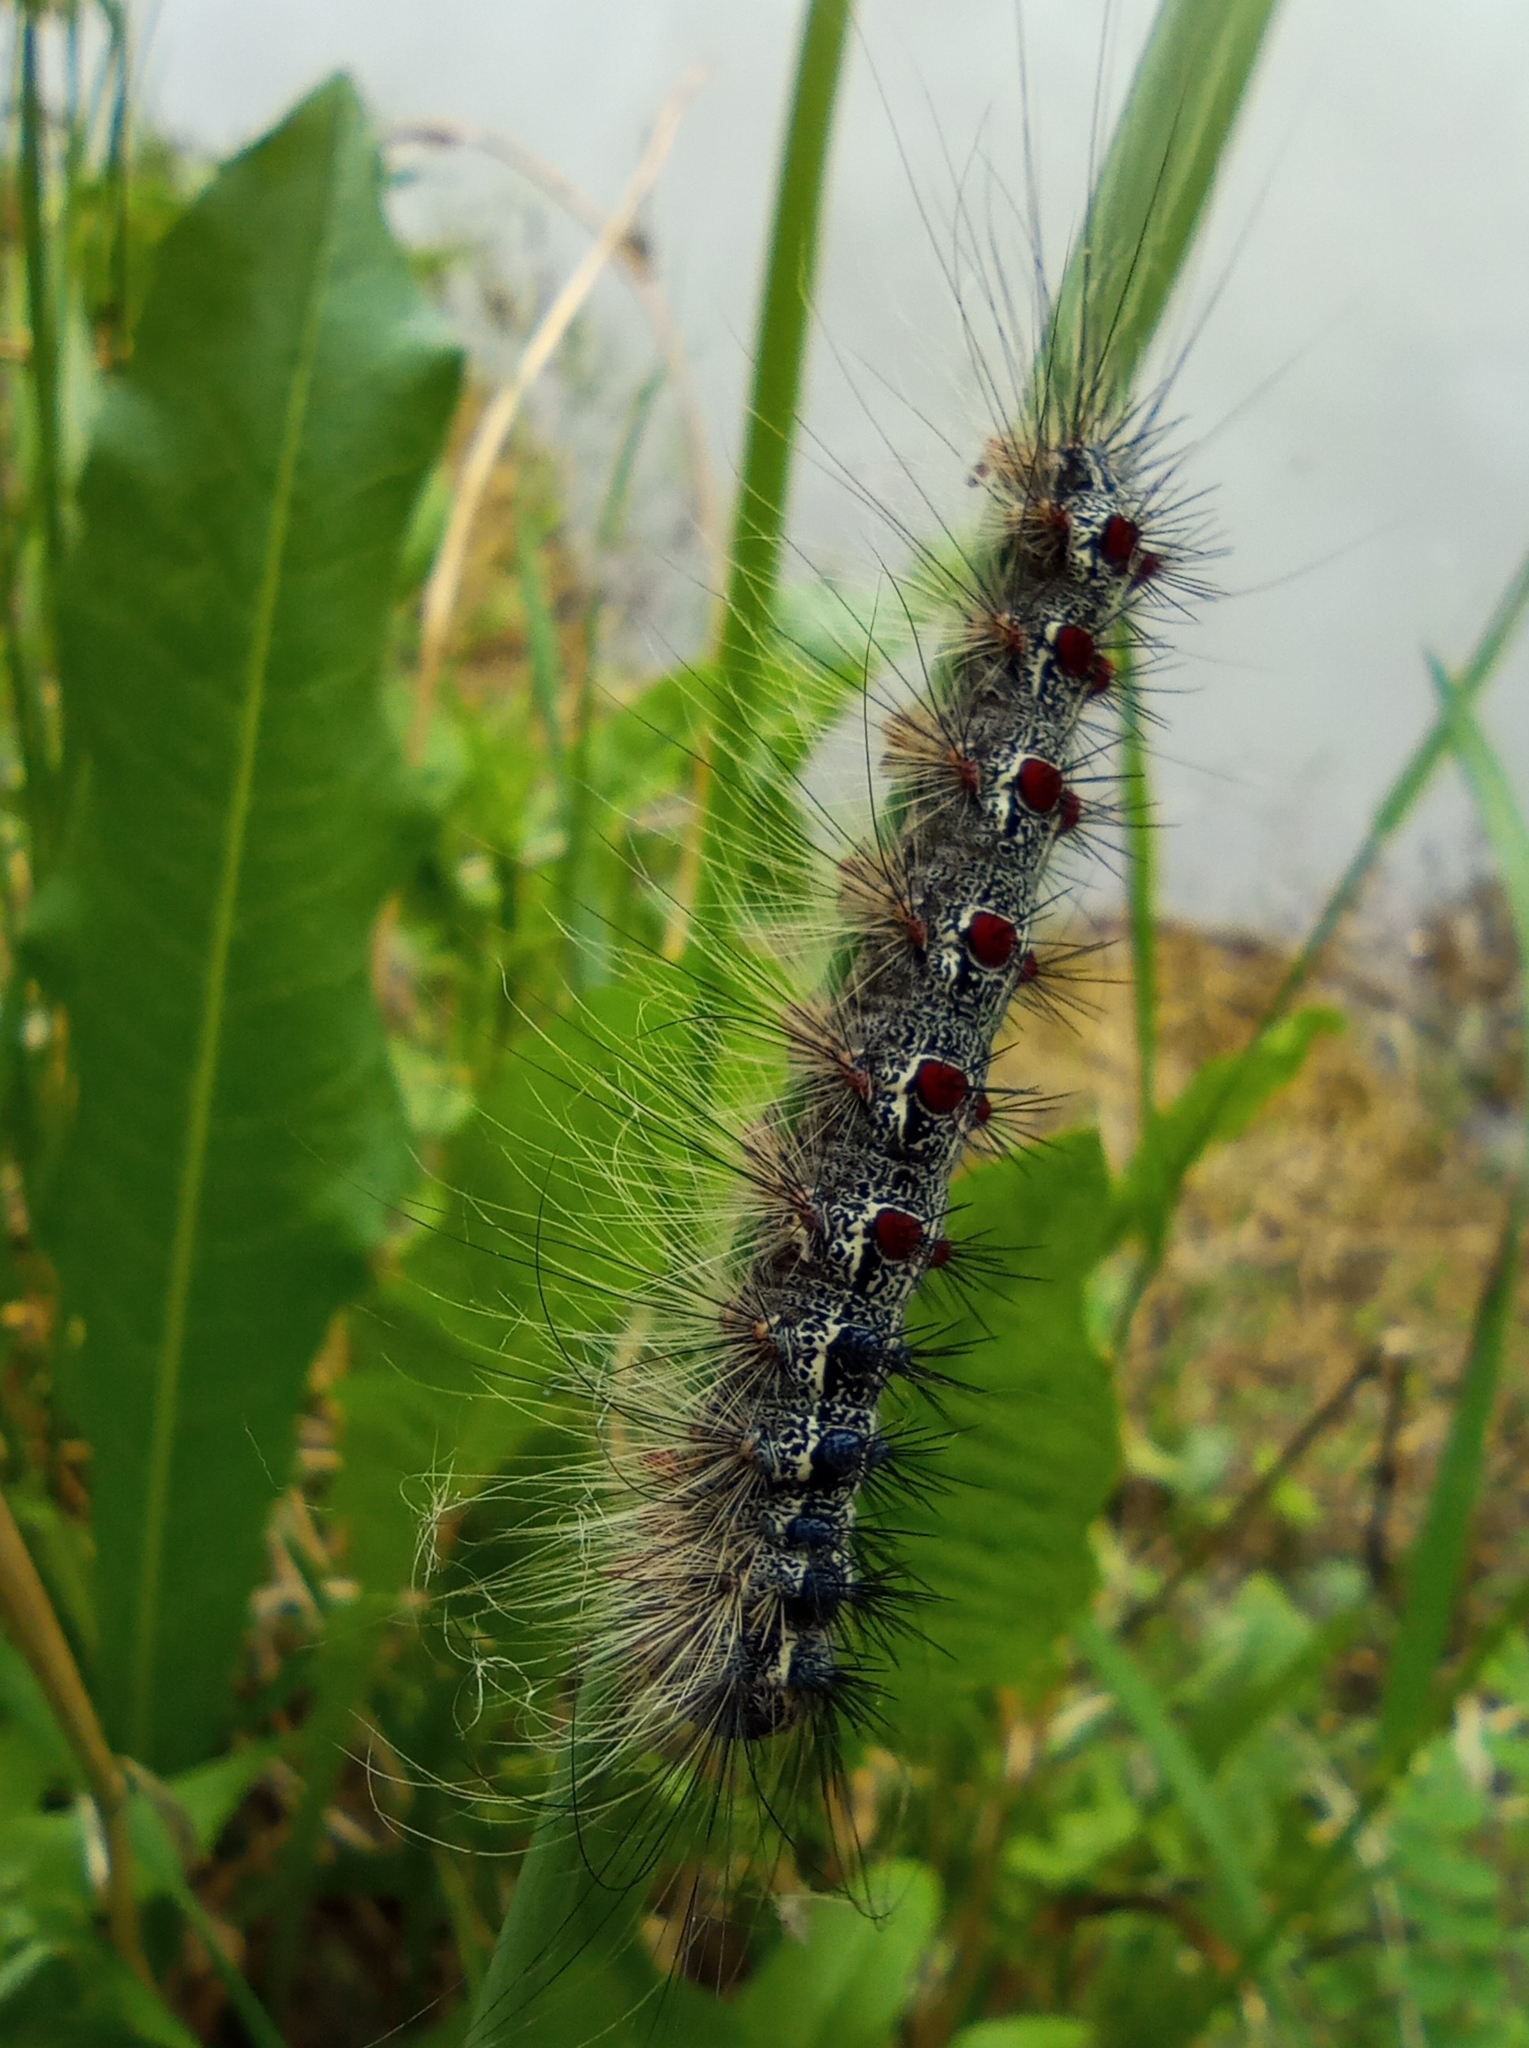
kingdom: Animalia
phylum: Arthropoda
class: Insecta
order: Lepidoptera
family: Erebidae
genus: Lymantria
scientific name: Lymantria dispar
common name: Gypsy moth
